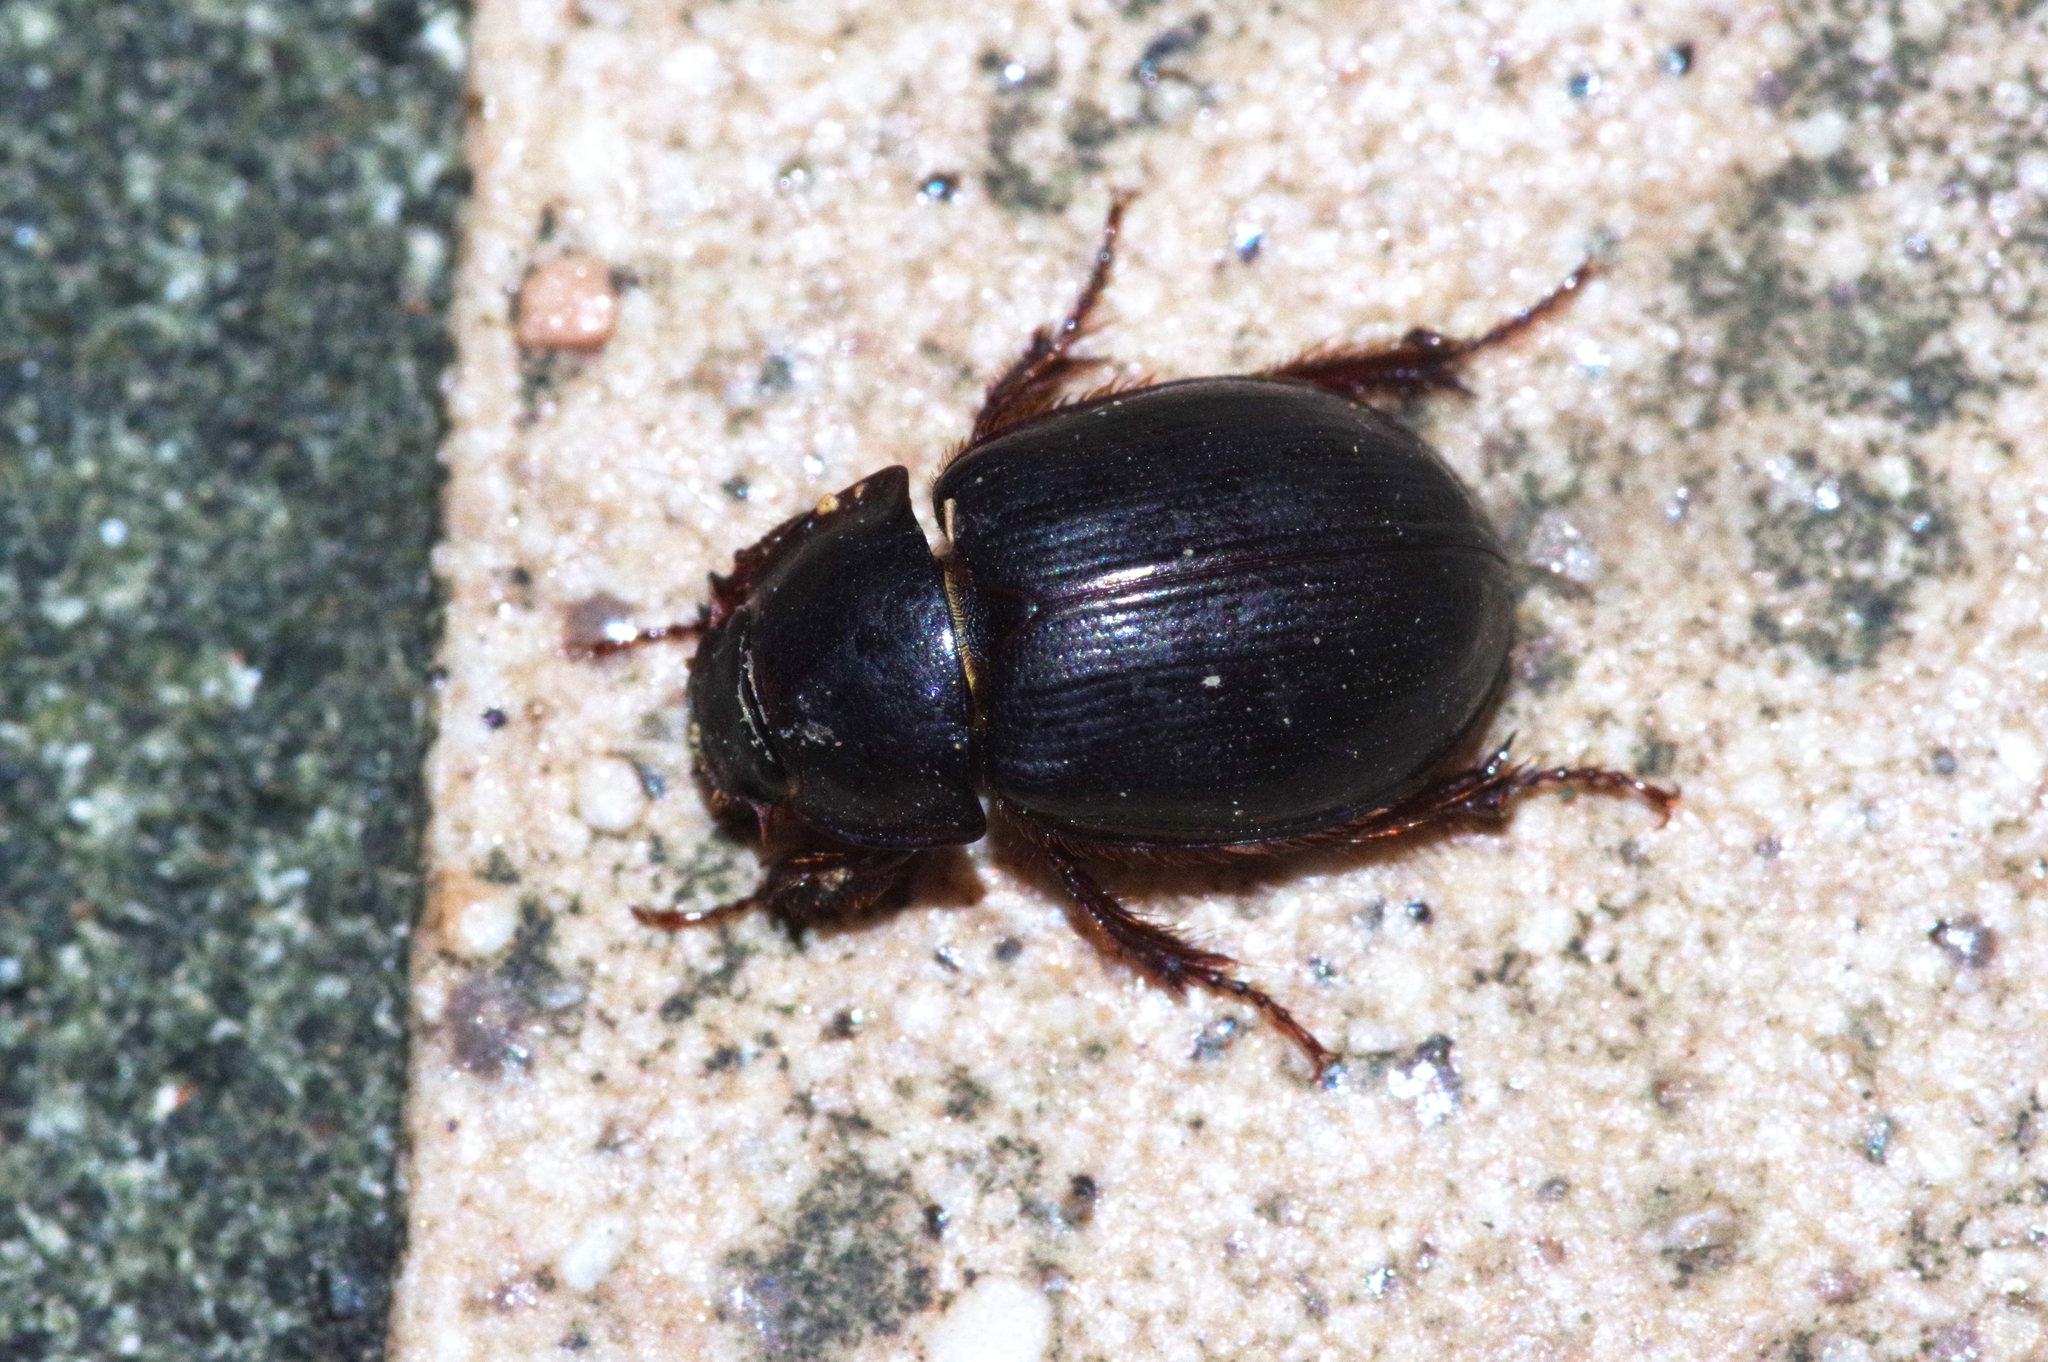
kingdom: Animalia
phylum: Arthropoda
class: Insecta
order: Coleoptera
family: Hybosoridae
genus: Phaeochrous
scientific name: Phaeochrous emarginatus
